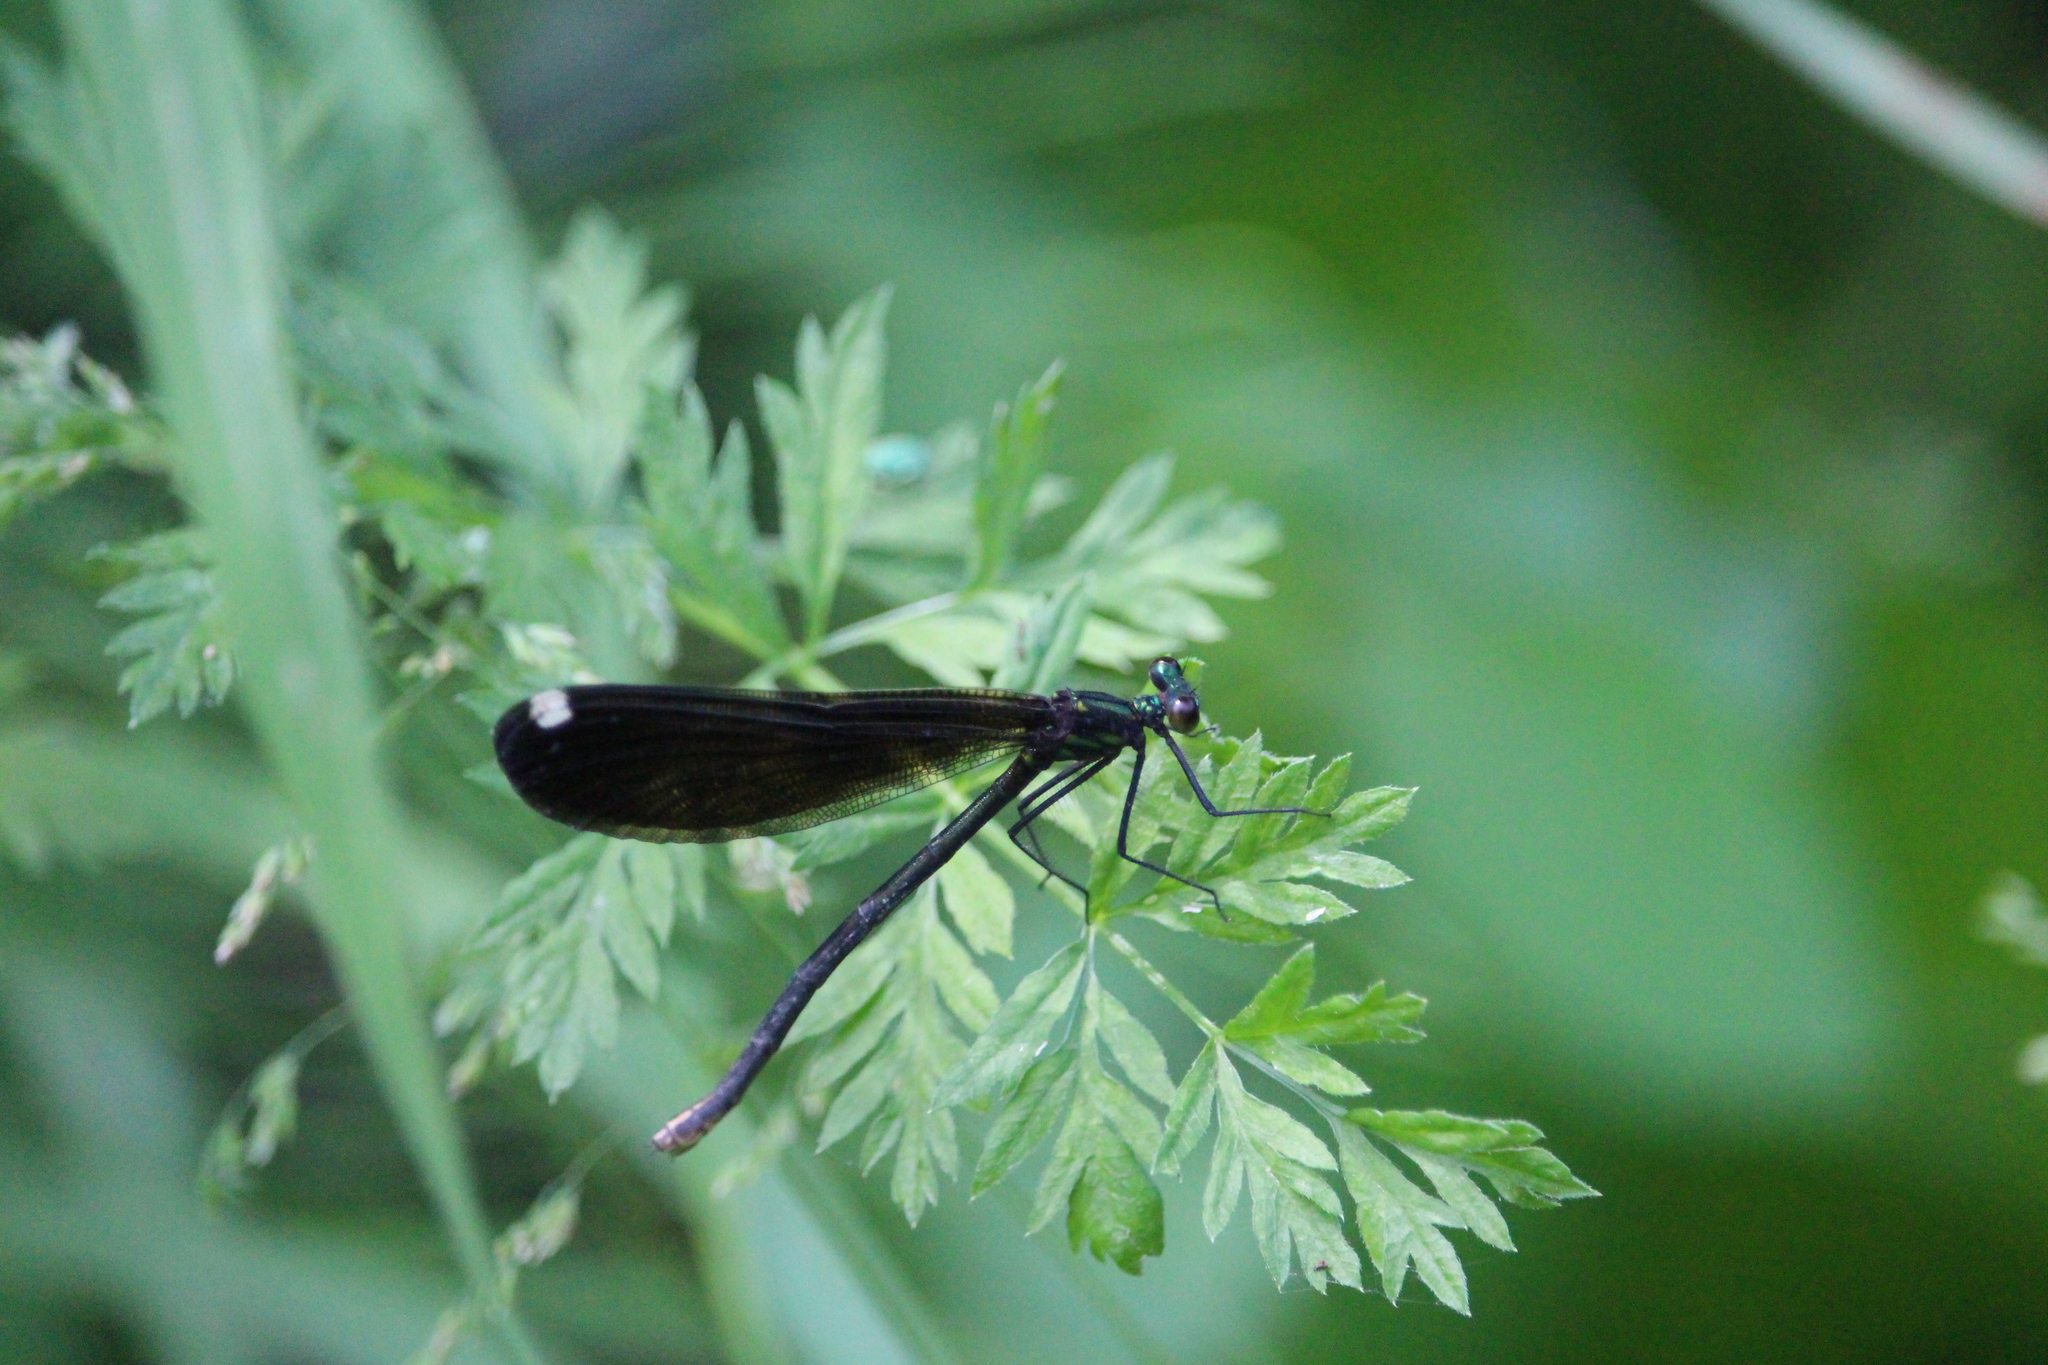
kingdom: Animalia
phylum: Arthropoda
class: Insecta
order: Odonata
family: Calopterygidae
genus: Calopteryx
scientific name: Calopteryx maculata
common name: Ebony jewelwing
